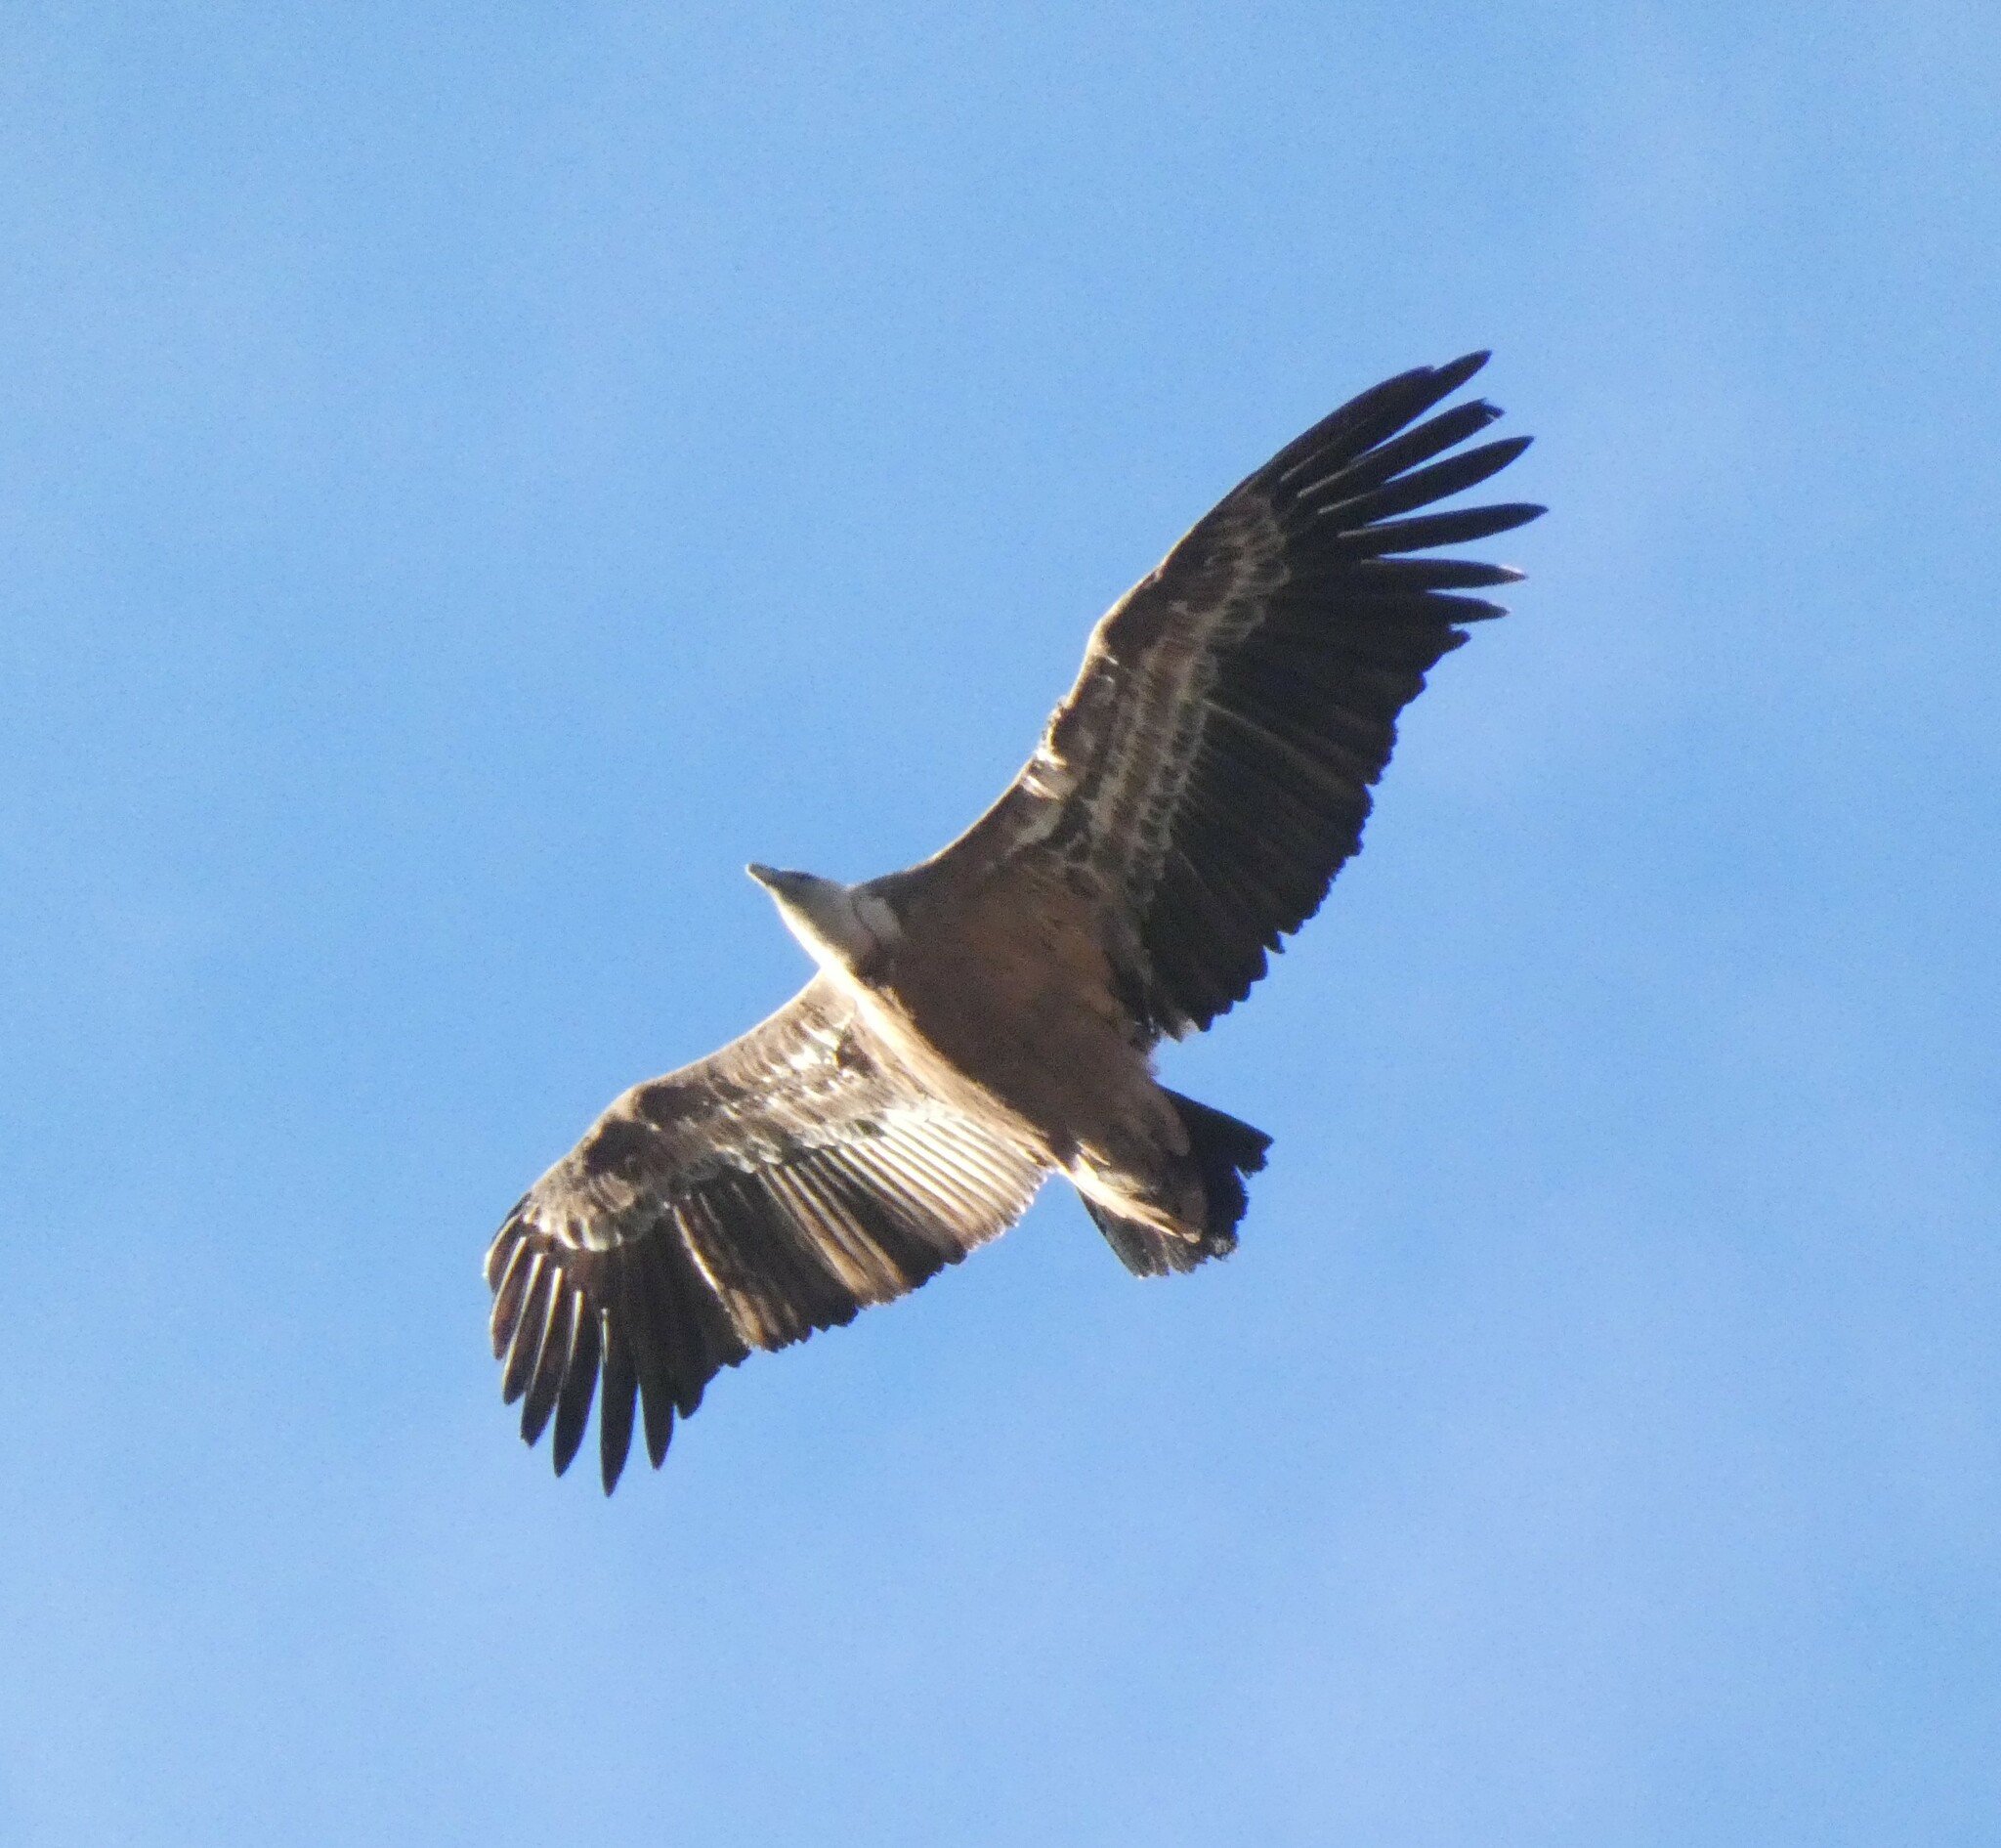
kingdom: Animalia
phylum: Chordata
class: Aves
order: Accipitriformes
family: Accipitridae
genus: Gyps
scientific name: Gyps fulvus
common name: Griffon vulture
